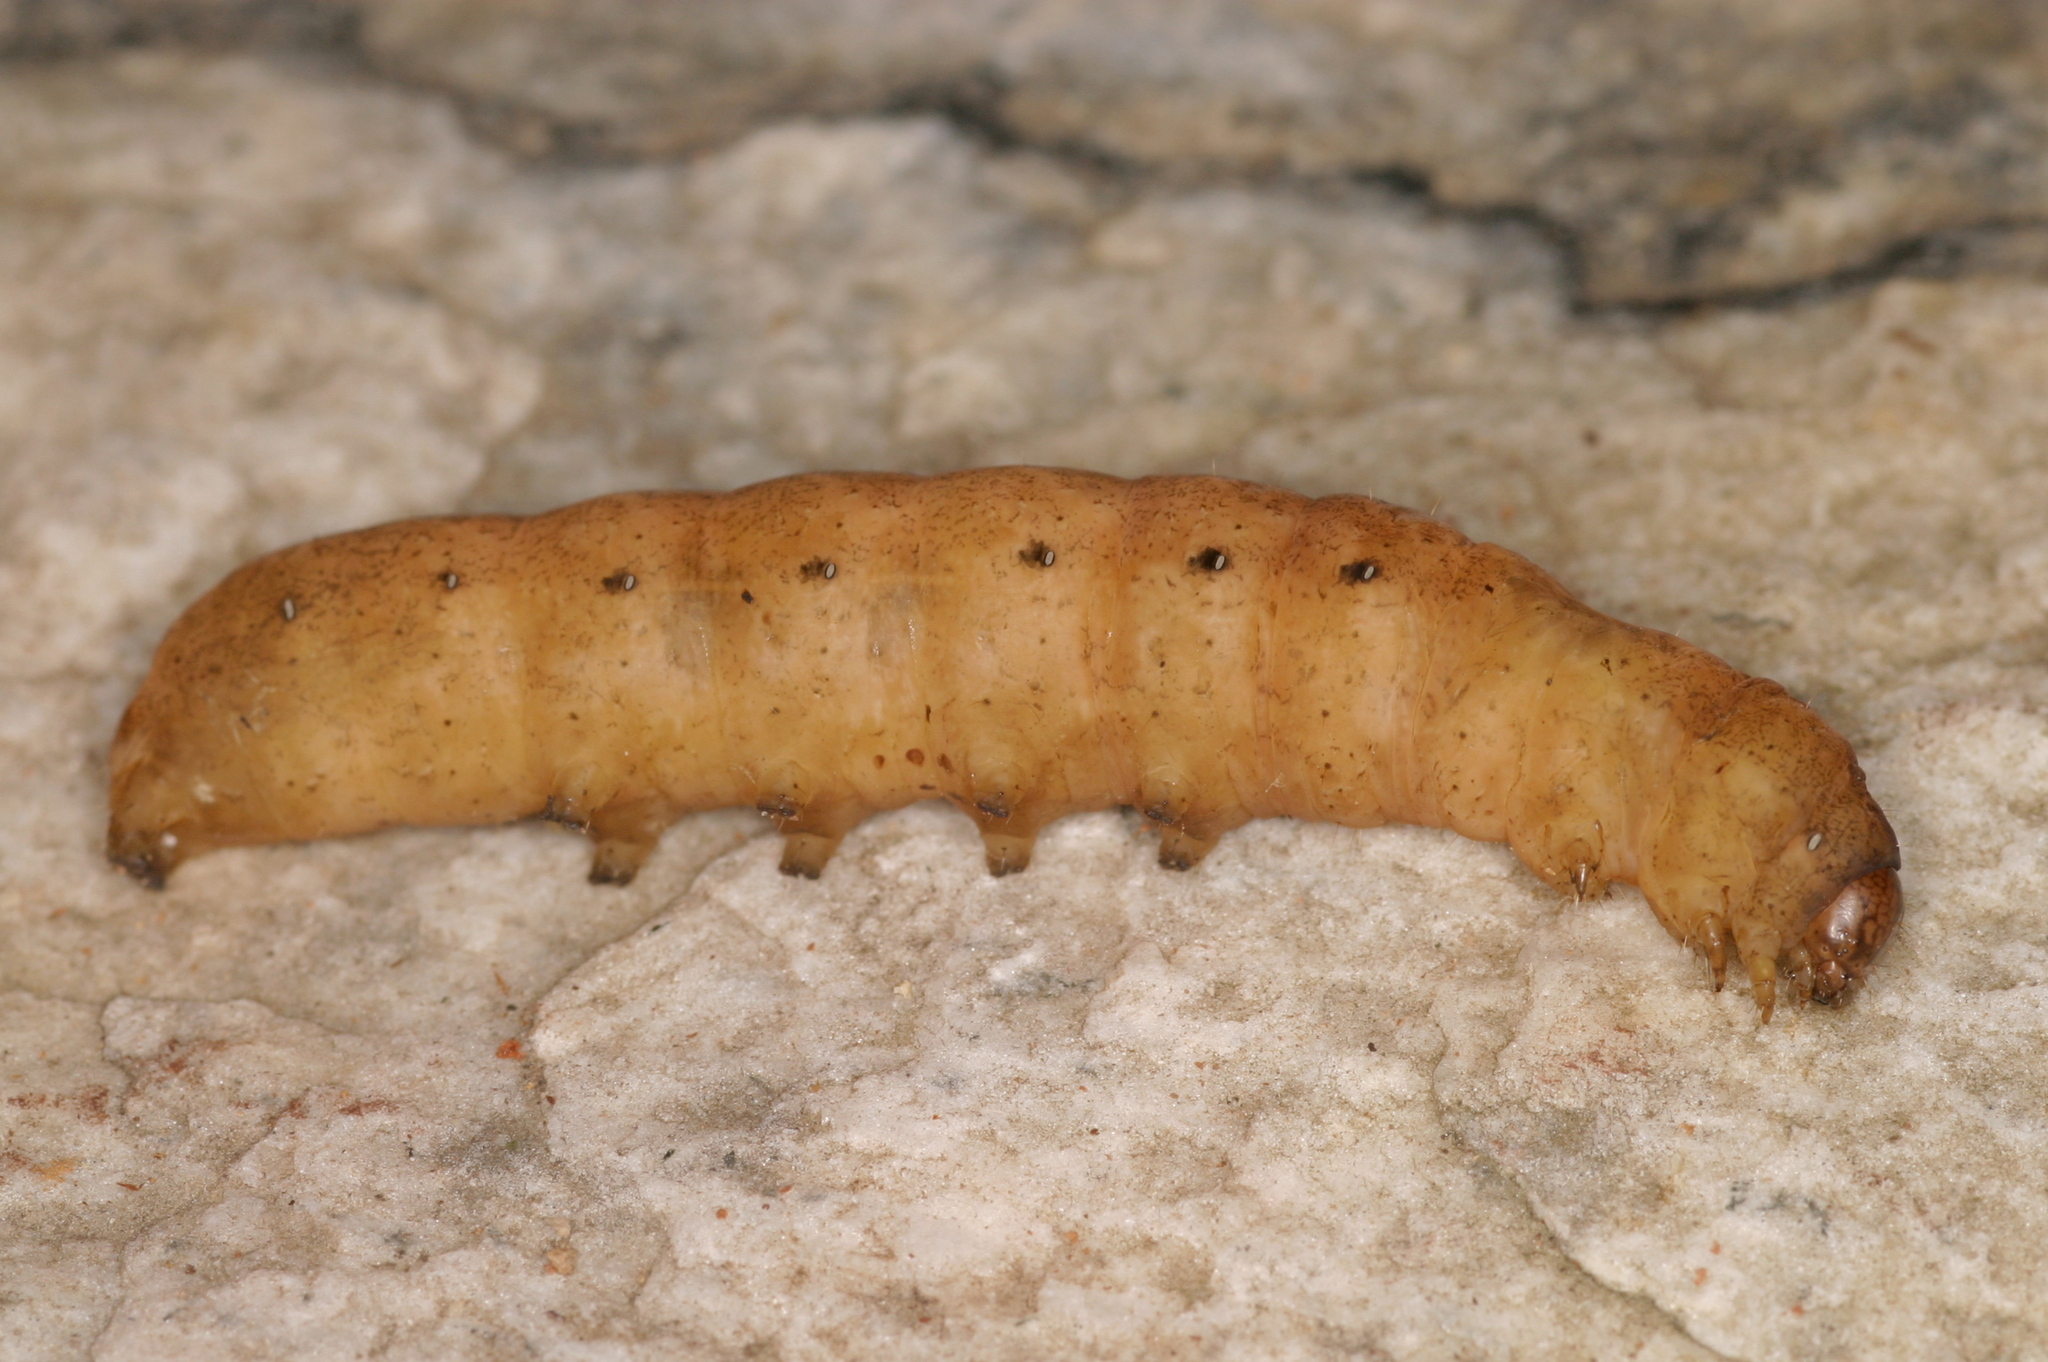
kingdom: Animalia
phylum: Arthropoda
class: Insecta
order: Lepidoptera
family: Noctuidae
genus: Noctua
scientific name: Noctua fimbriata
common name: Broad-bordered yellow underwing
